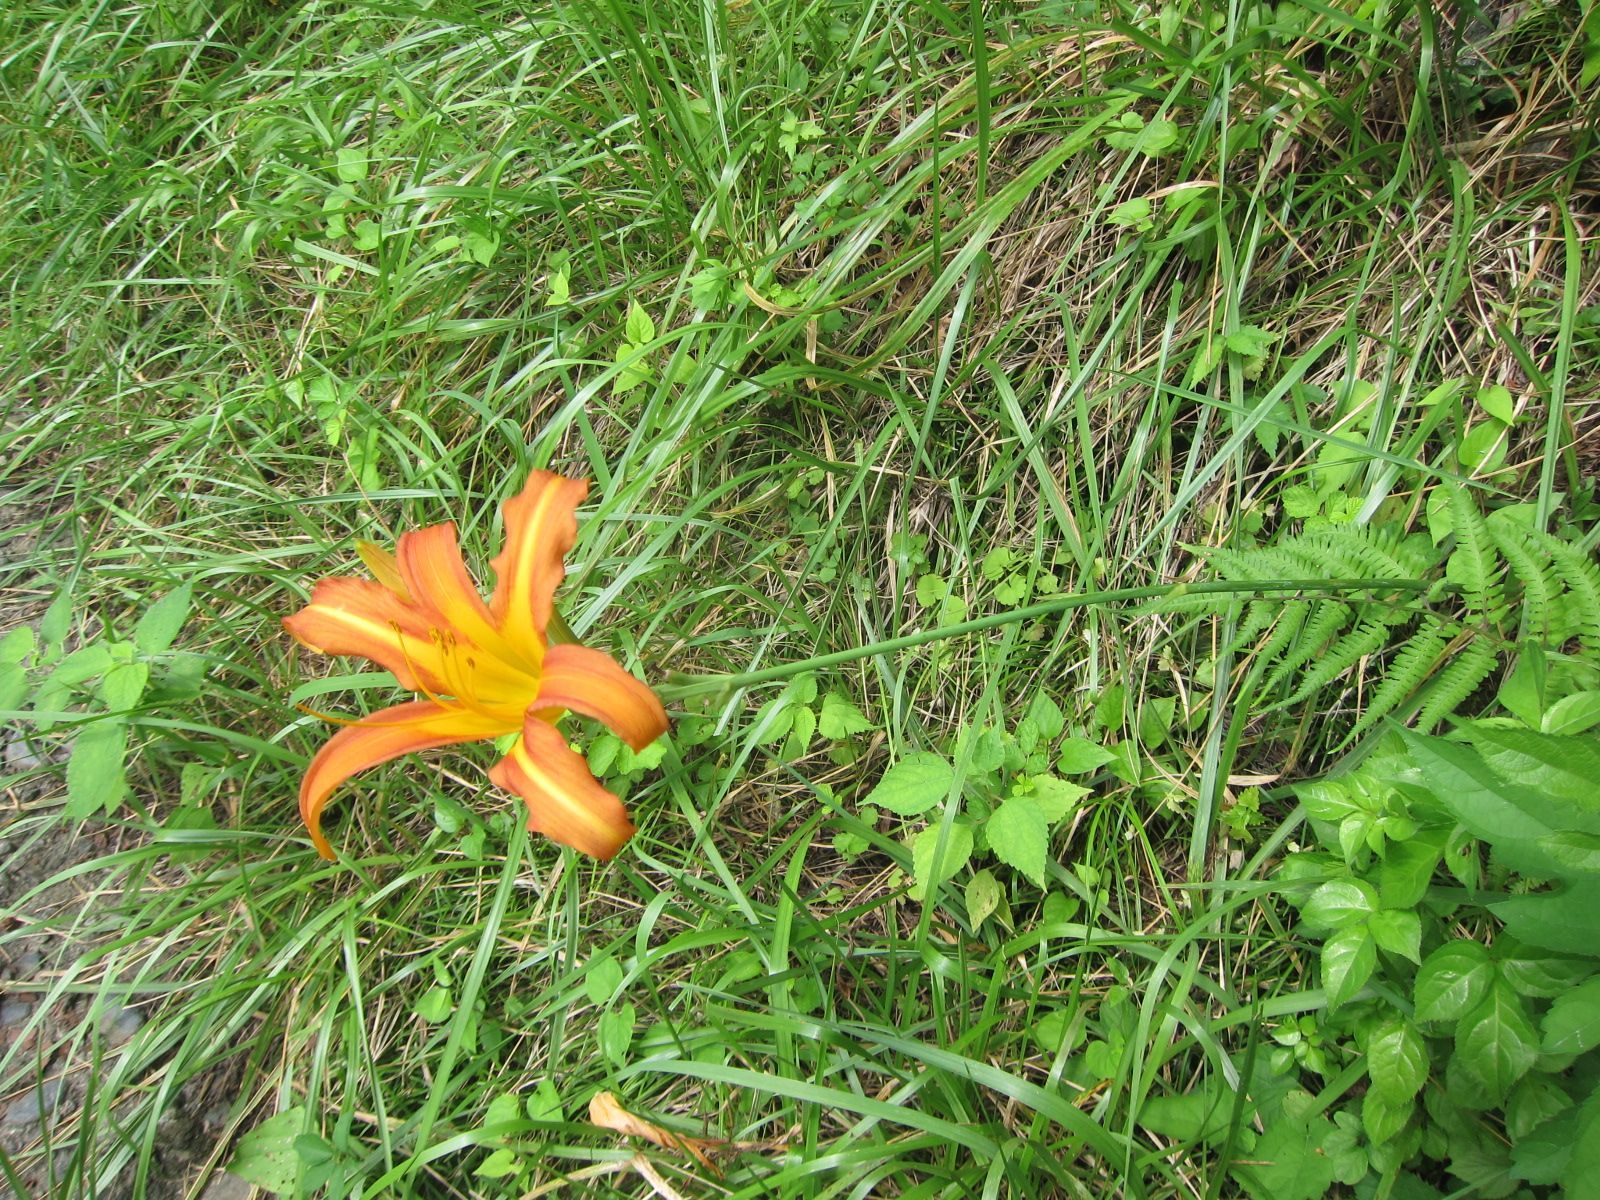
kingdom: Plantae
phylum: Tracheophyta
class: Liliopsida
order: Asparagales
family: Asphodelaceae
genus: Hemerocallis
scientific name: Hemerocallis fulva
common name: Orange day-lily
